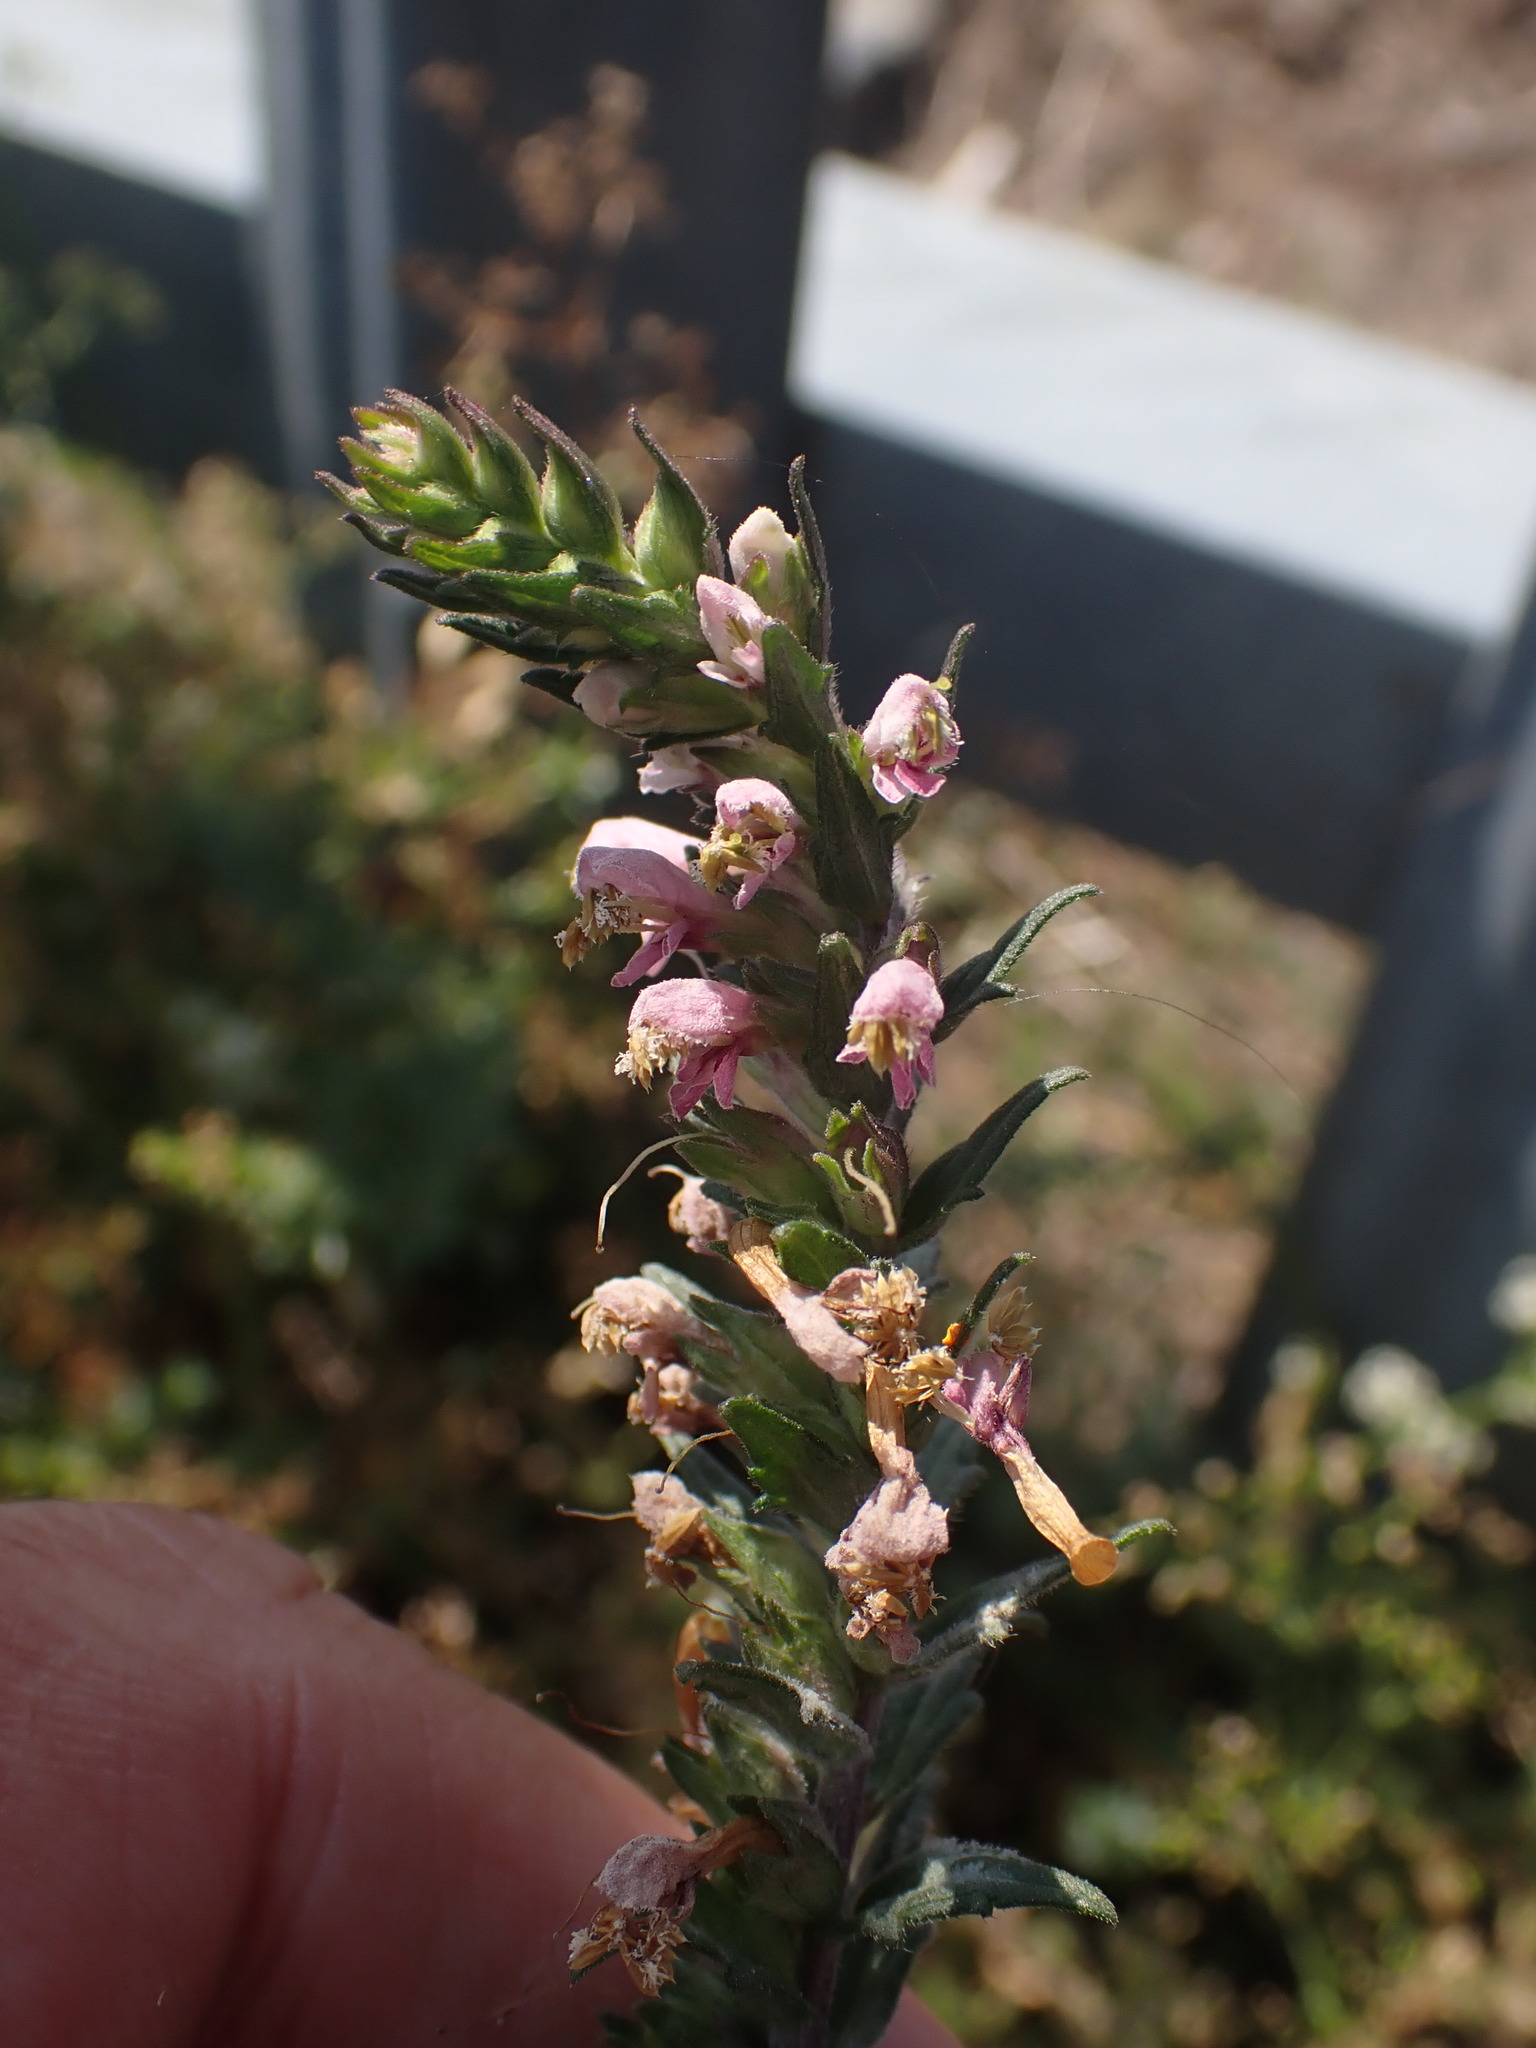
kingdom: Plantae
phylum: Tracheophyta
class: Magnoliopsida
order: Lamiales
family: Orobanchaceae
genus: Odontites
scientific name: Odontites vulgaris
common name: Broomrape
